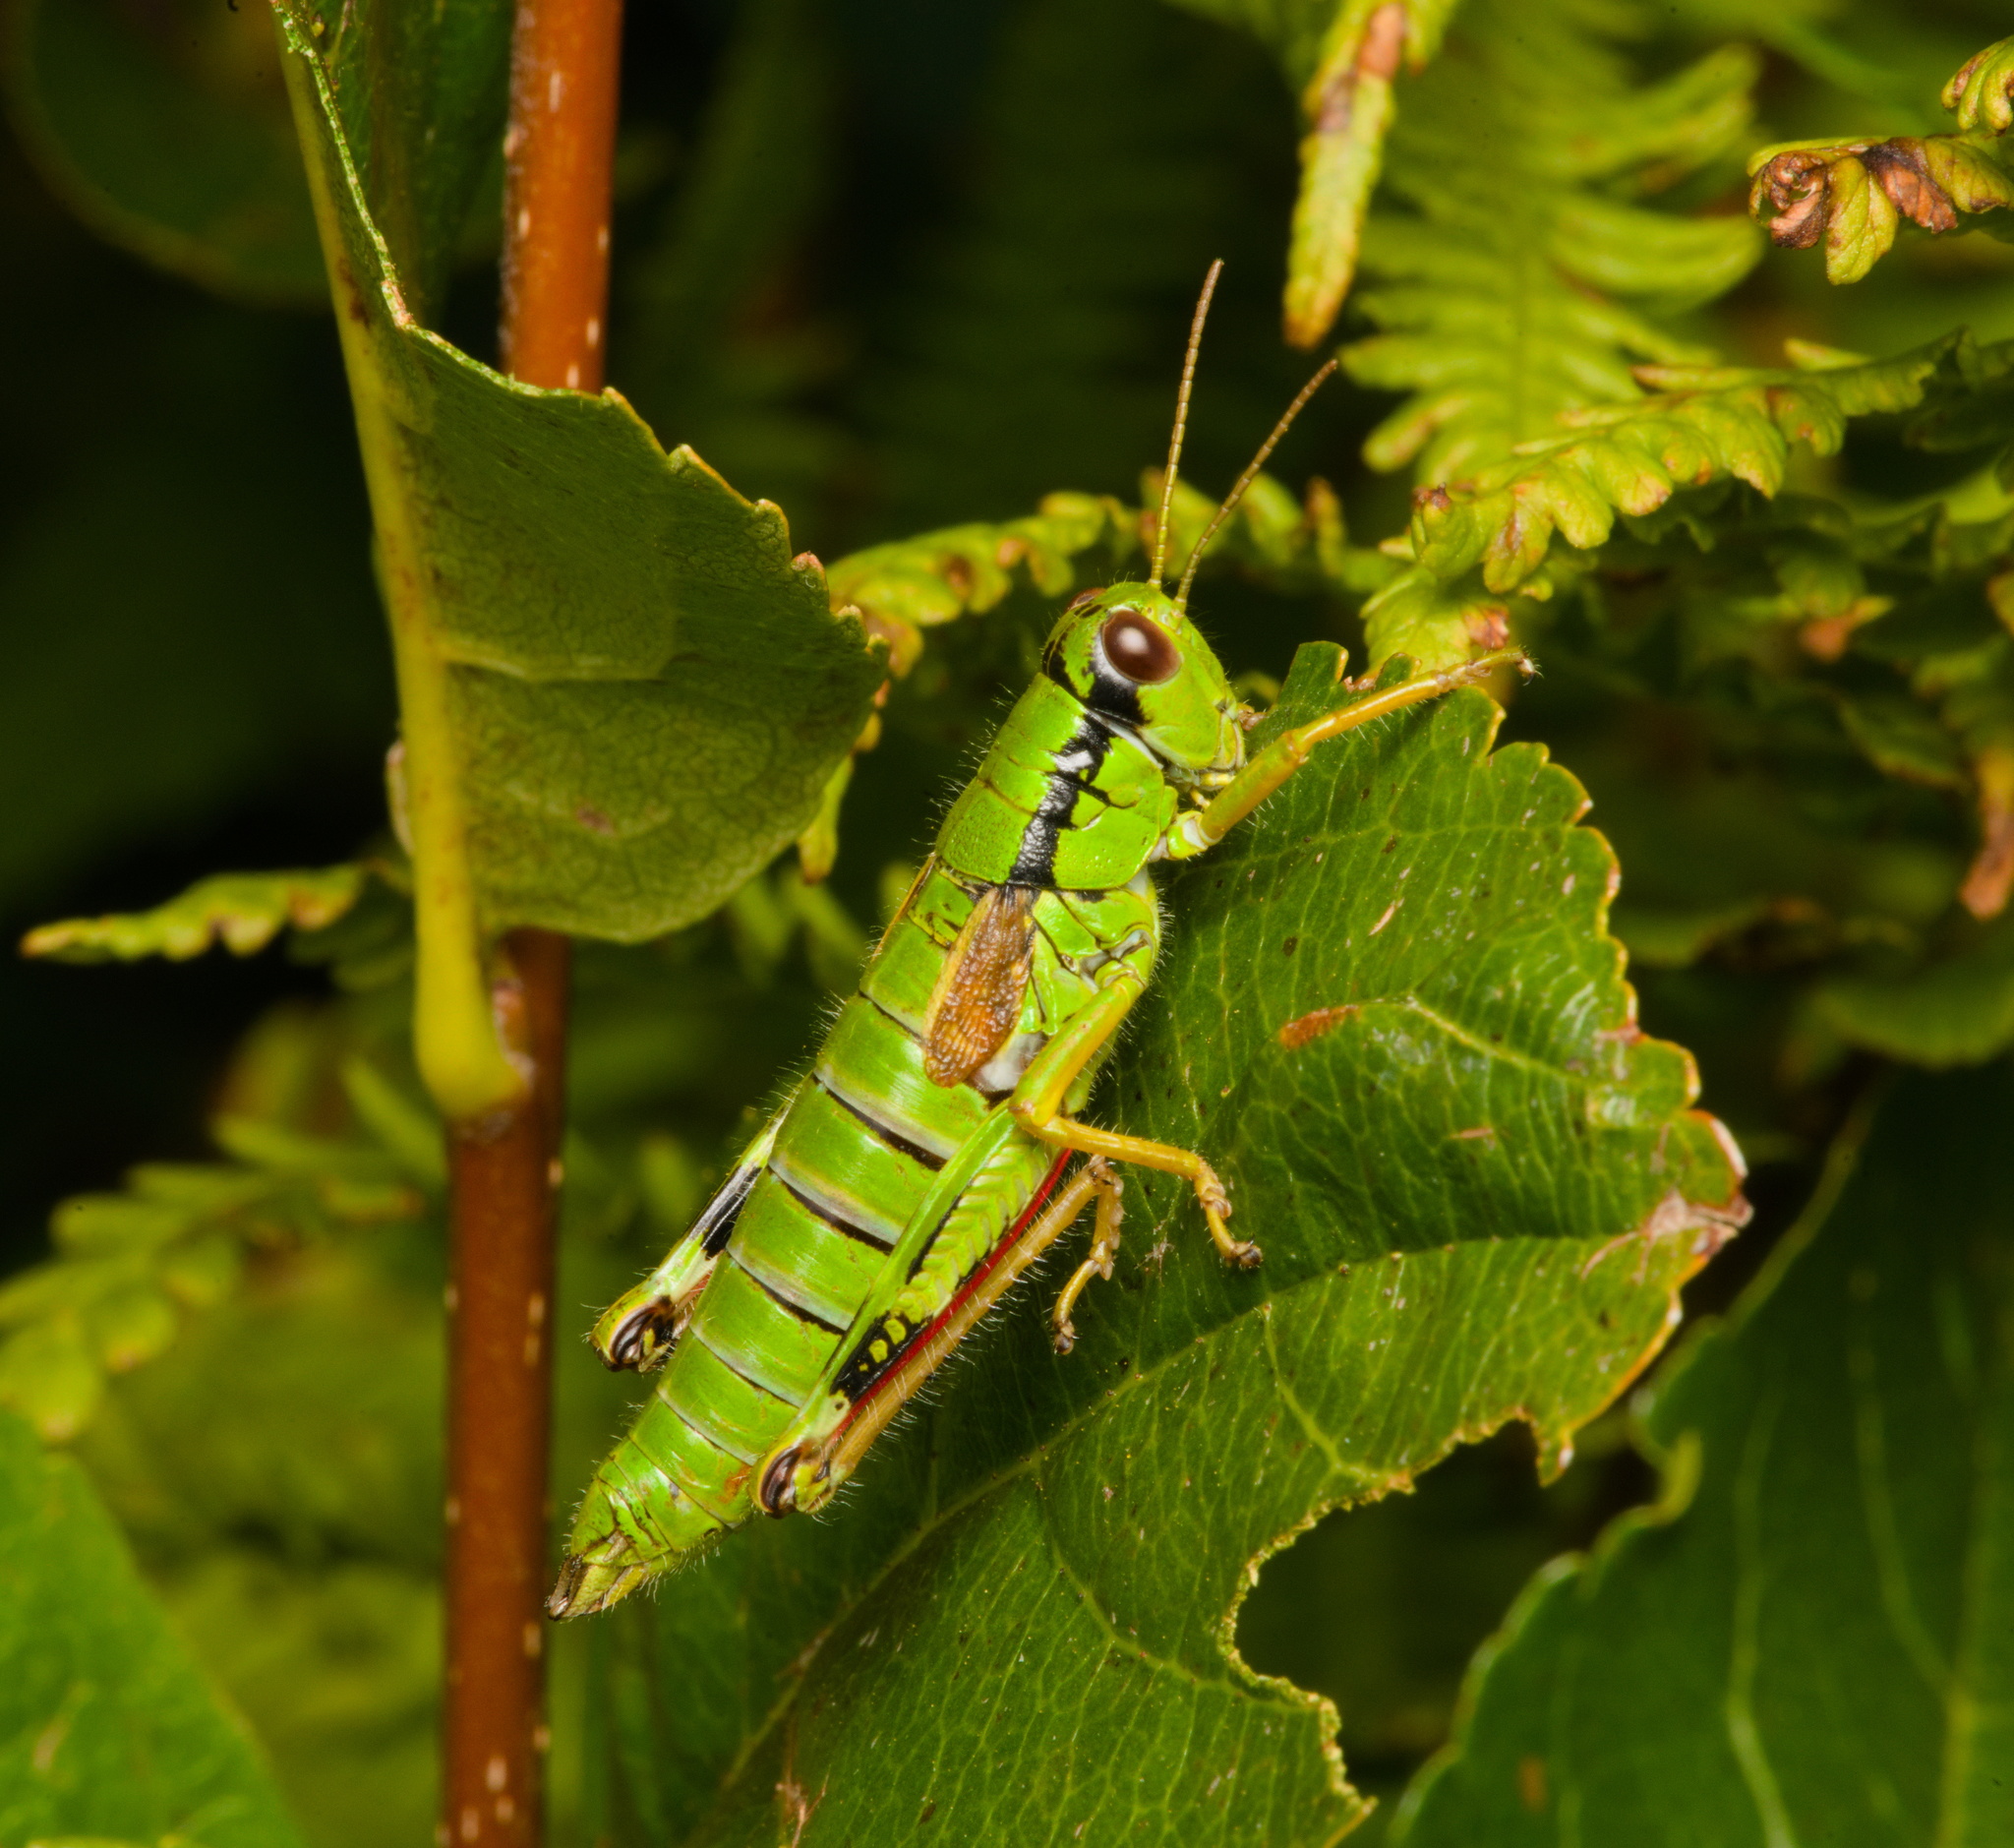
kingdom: Animalia
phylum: Arthropoda
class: Insecta
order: Orthoptera
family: Acrididae
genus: Miramella
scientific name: Miramella alpina
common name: Green mountain grasshopper
